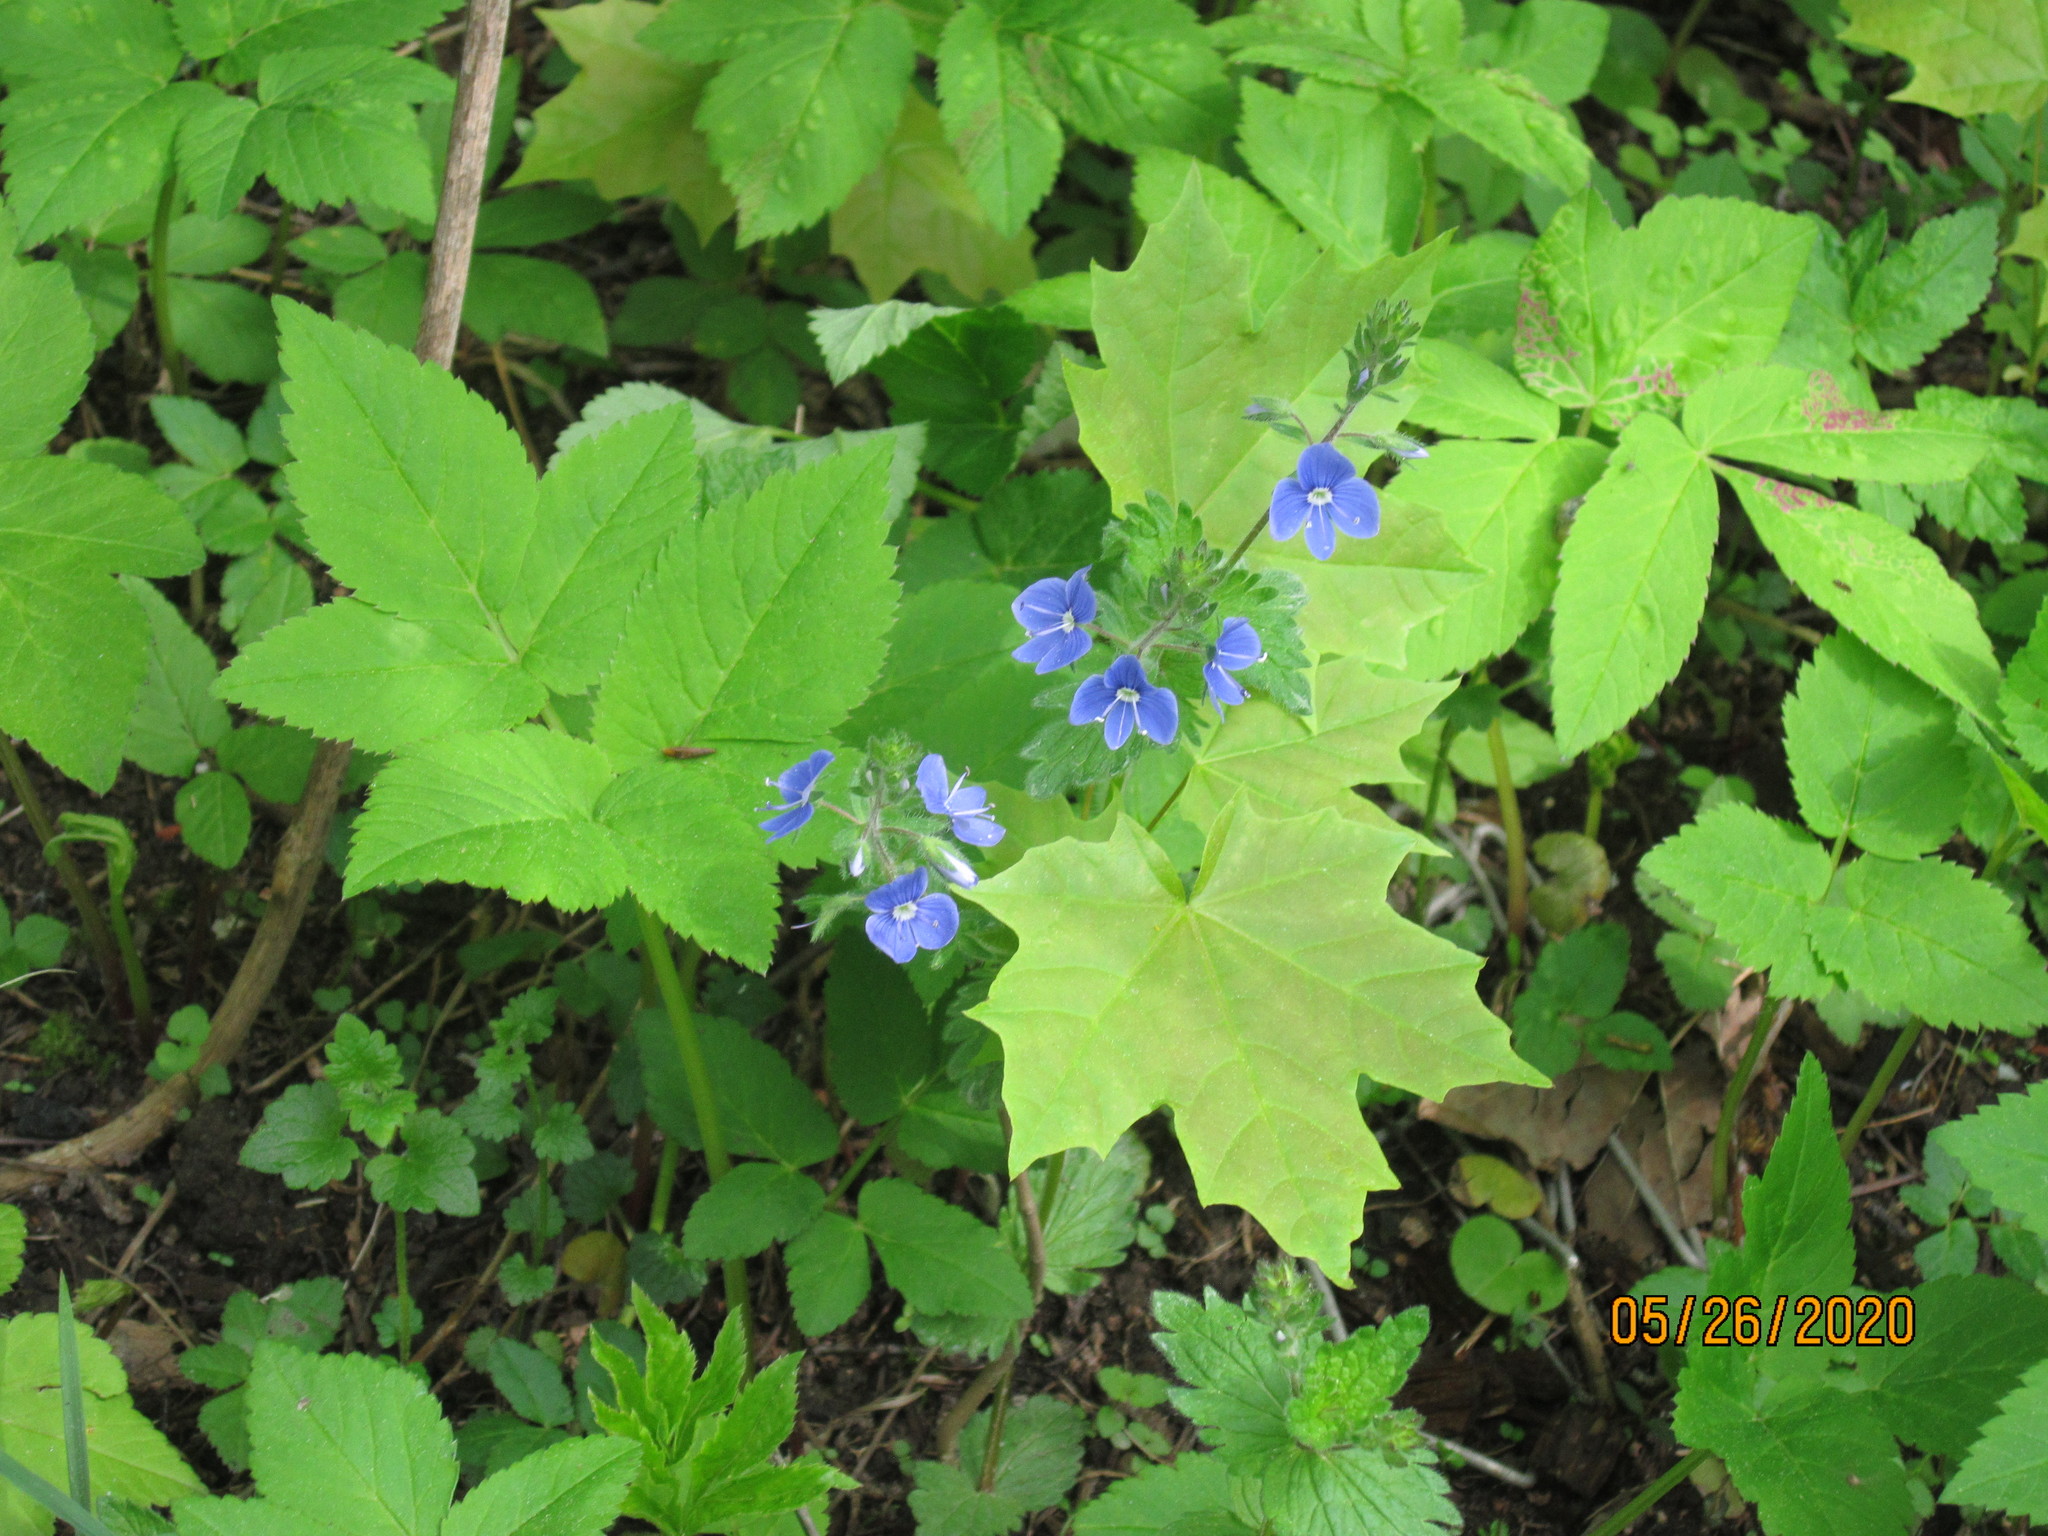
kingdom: Plantae
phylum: Tracheophyta
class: Magnoliopsida
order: Lamiales
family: Plantaginaceae
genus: Veronica
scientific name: Veronica chamaedrys
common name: Germander speedwell
